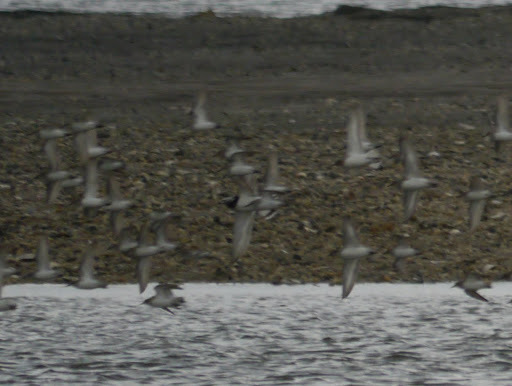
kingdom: Animalia
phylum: Chordata
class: Aves
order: Charadriiformes
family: Scolopacidae
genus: Calidris
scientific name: Calidris alba
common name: Sanderling
